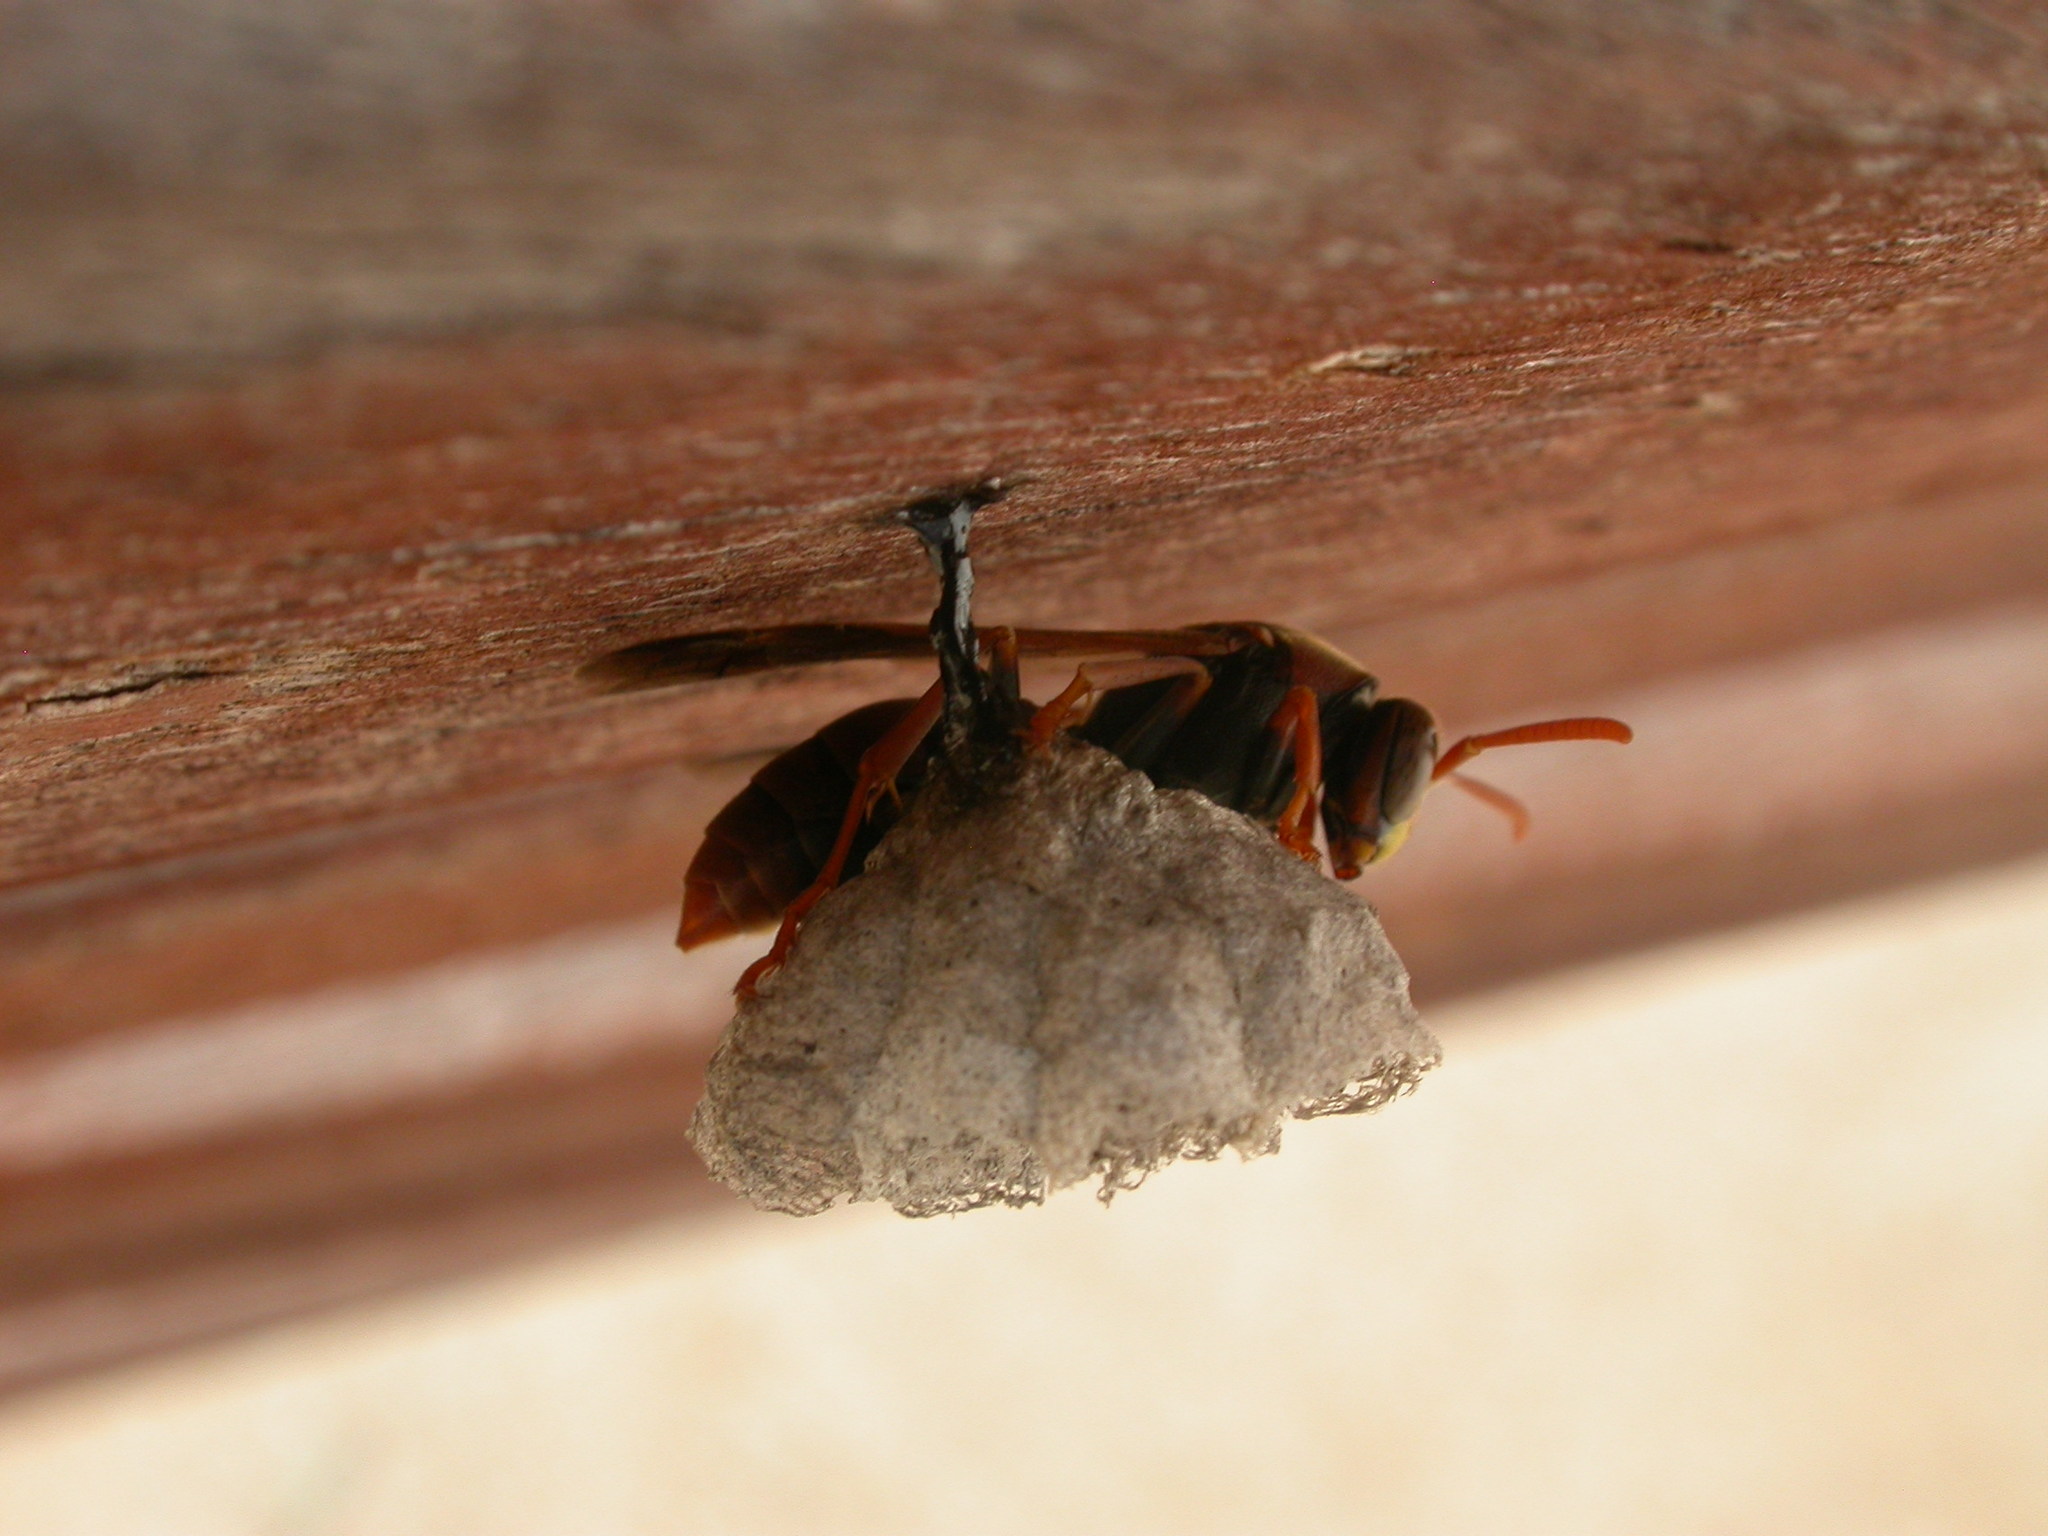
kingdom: Animalia
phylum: Arthropoda
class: Insecta
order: Hymenoptera
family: Eumenidae
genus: Polistes
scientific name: Polistes humilis
